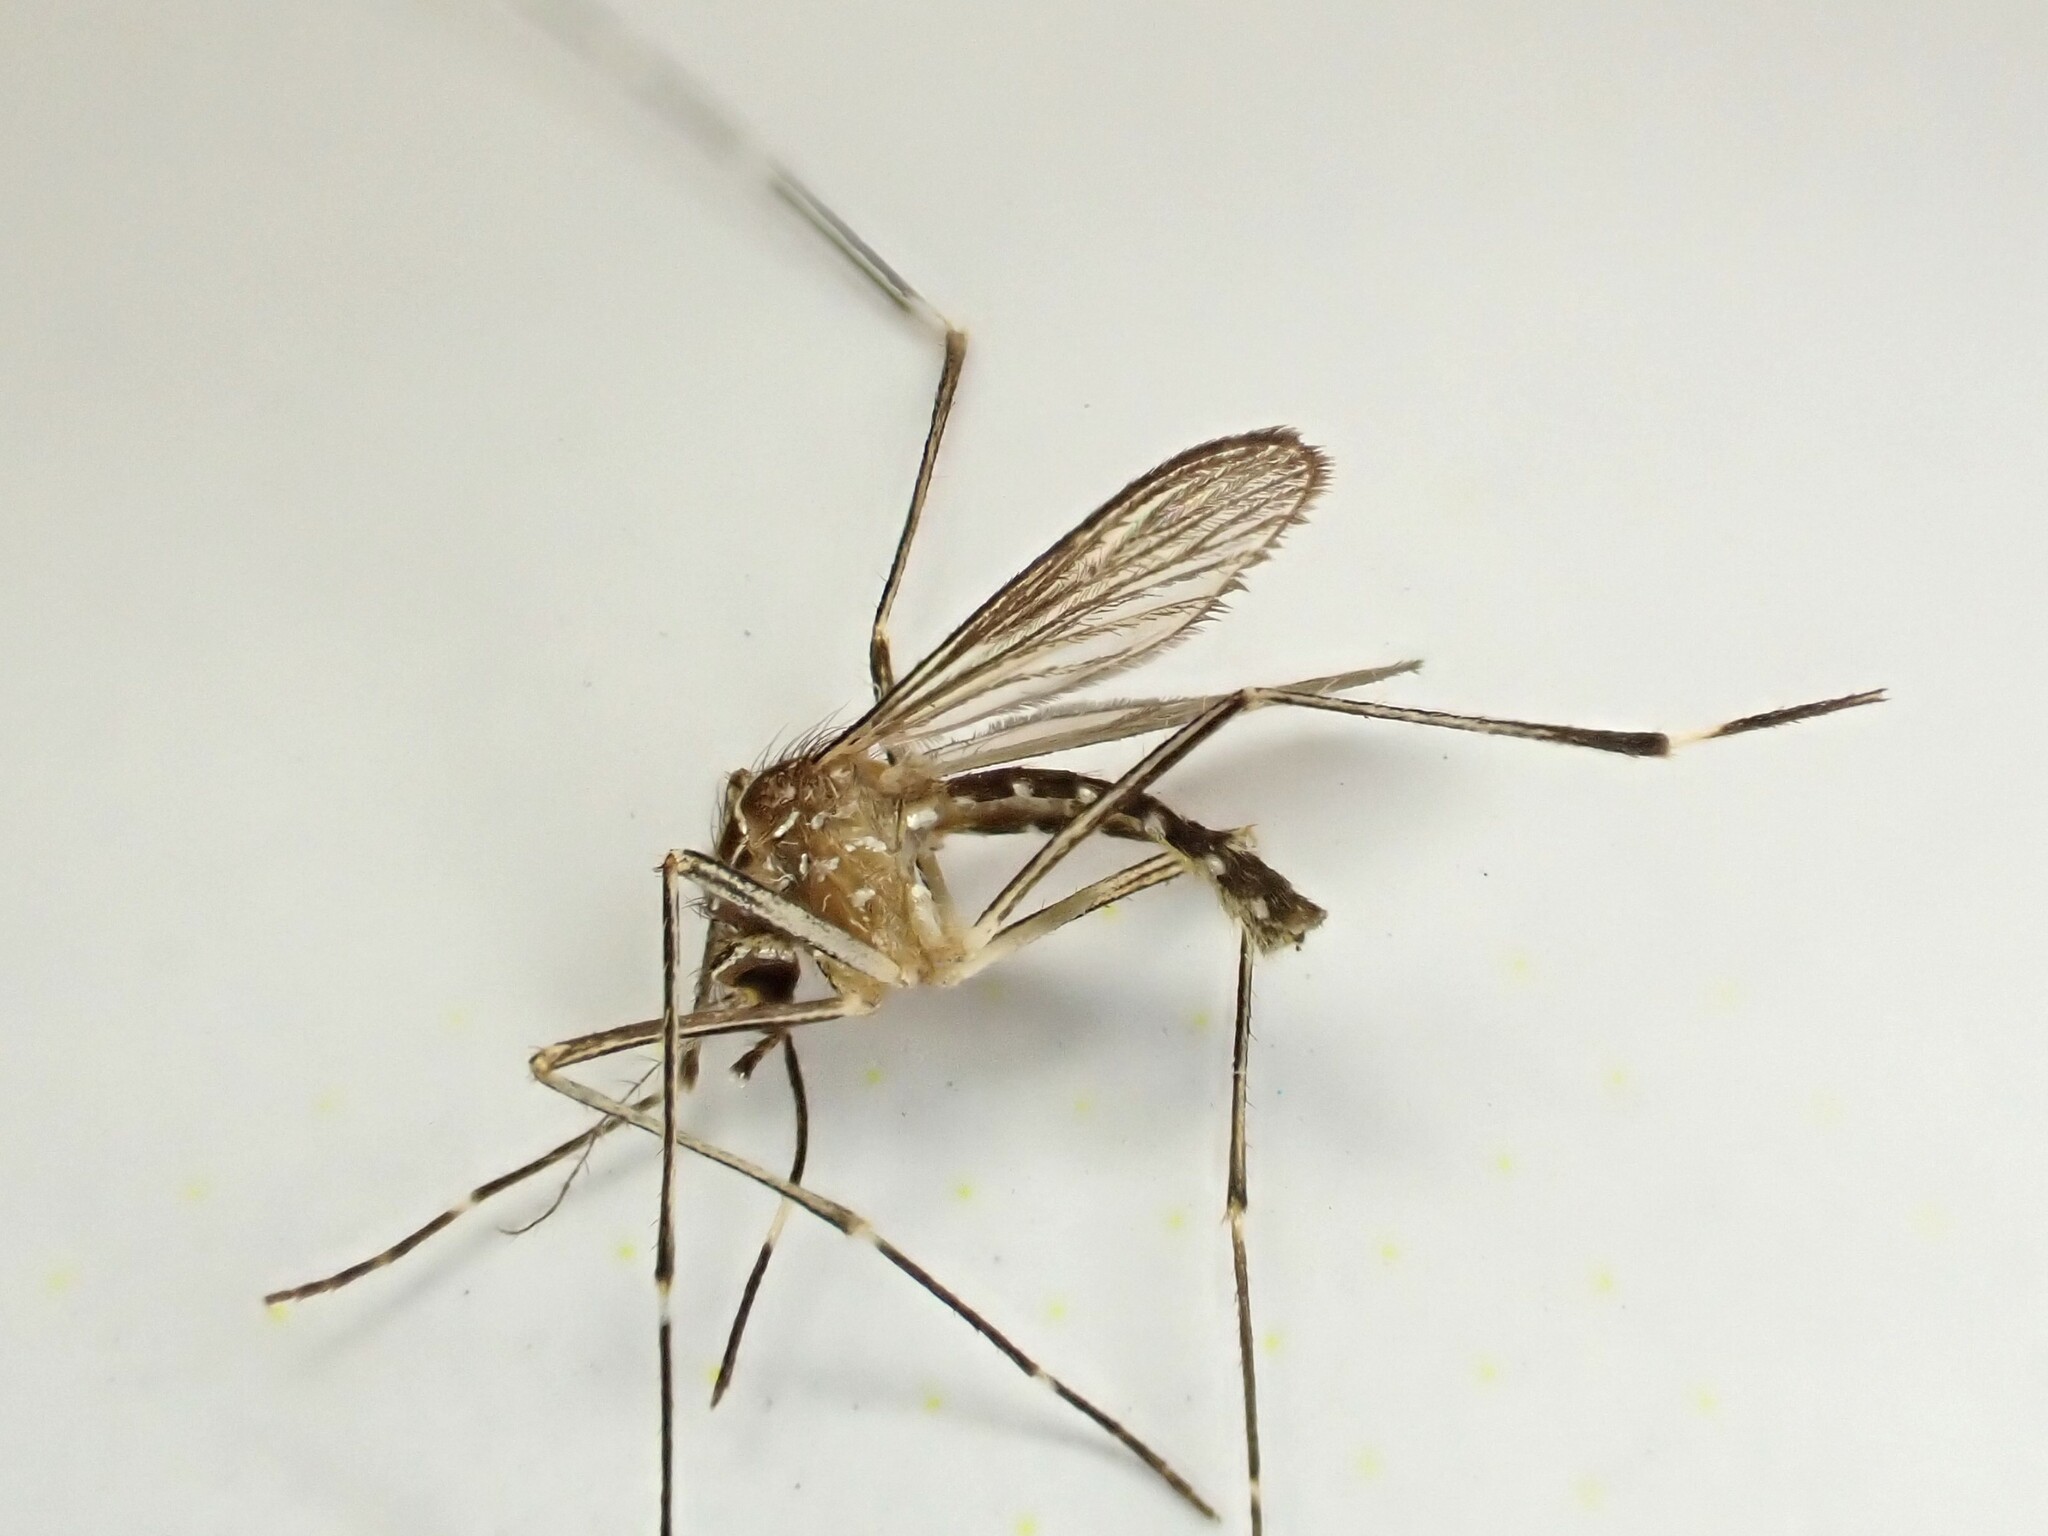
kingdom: Animalia
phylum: Arthropoda
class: Insecta
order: Diptera
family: Culicidae
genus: Aedes
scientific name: Aedes notoscriptus
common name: Australian backyard mosquito
